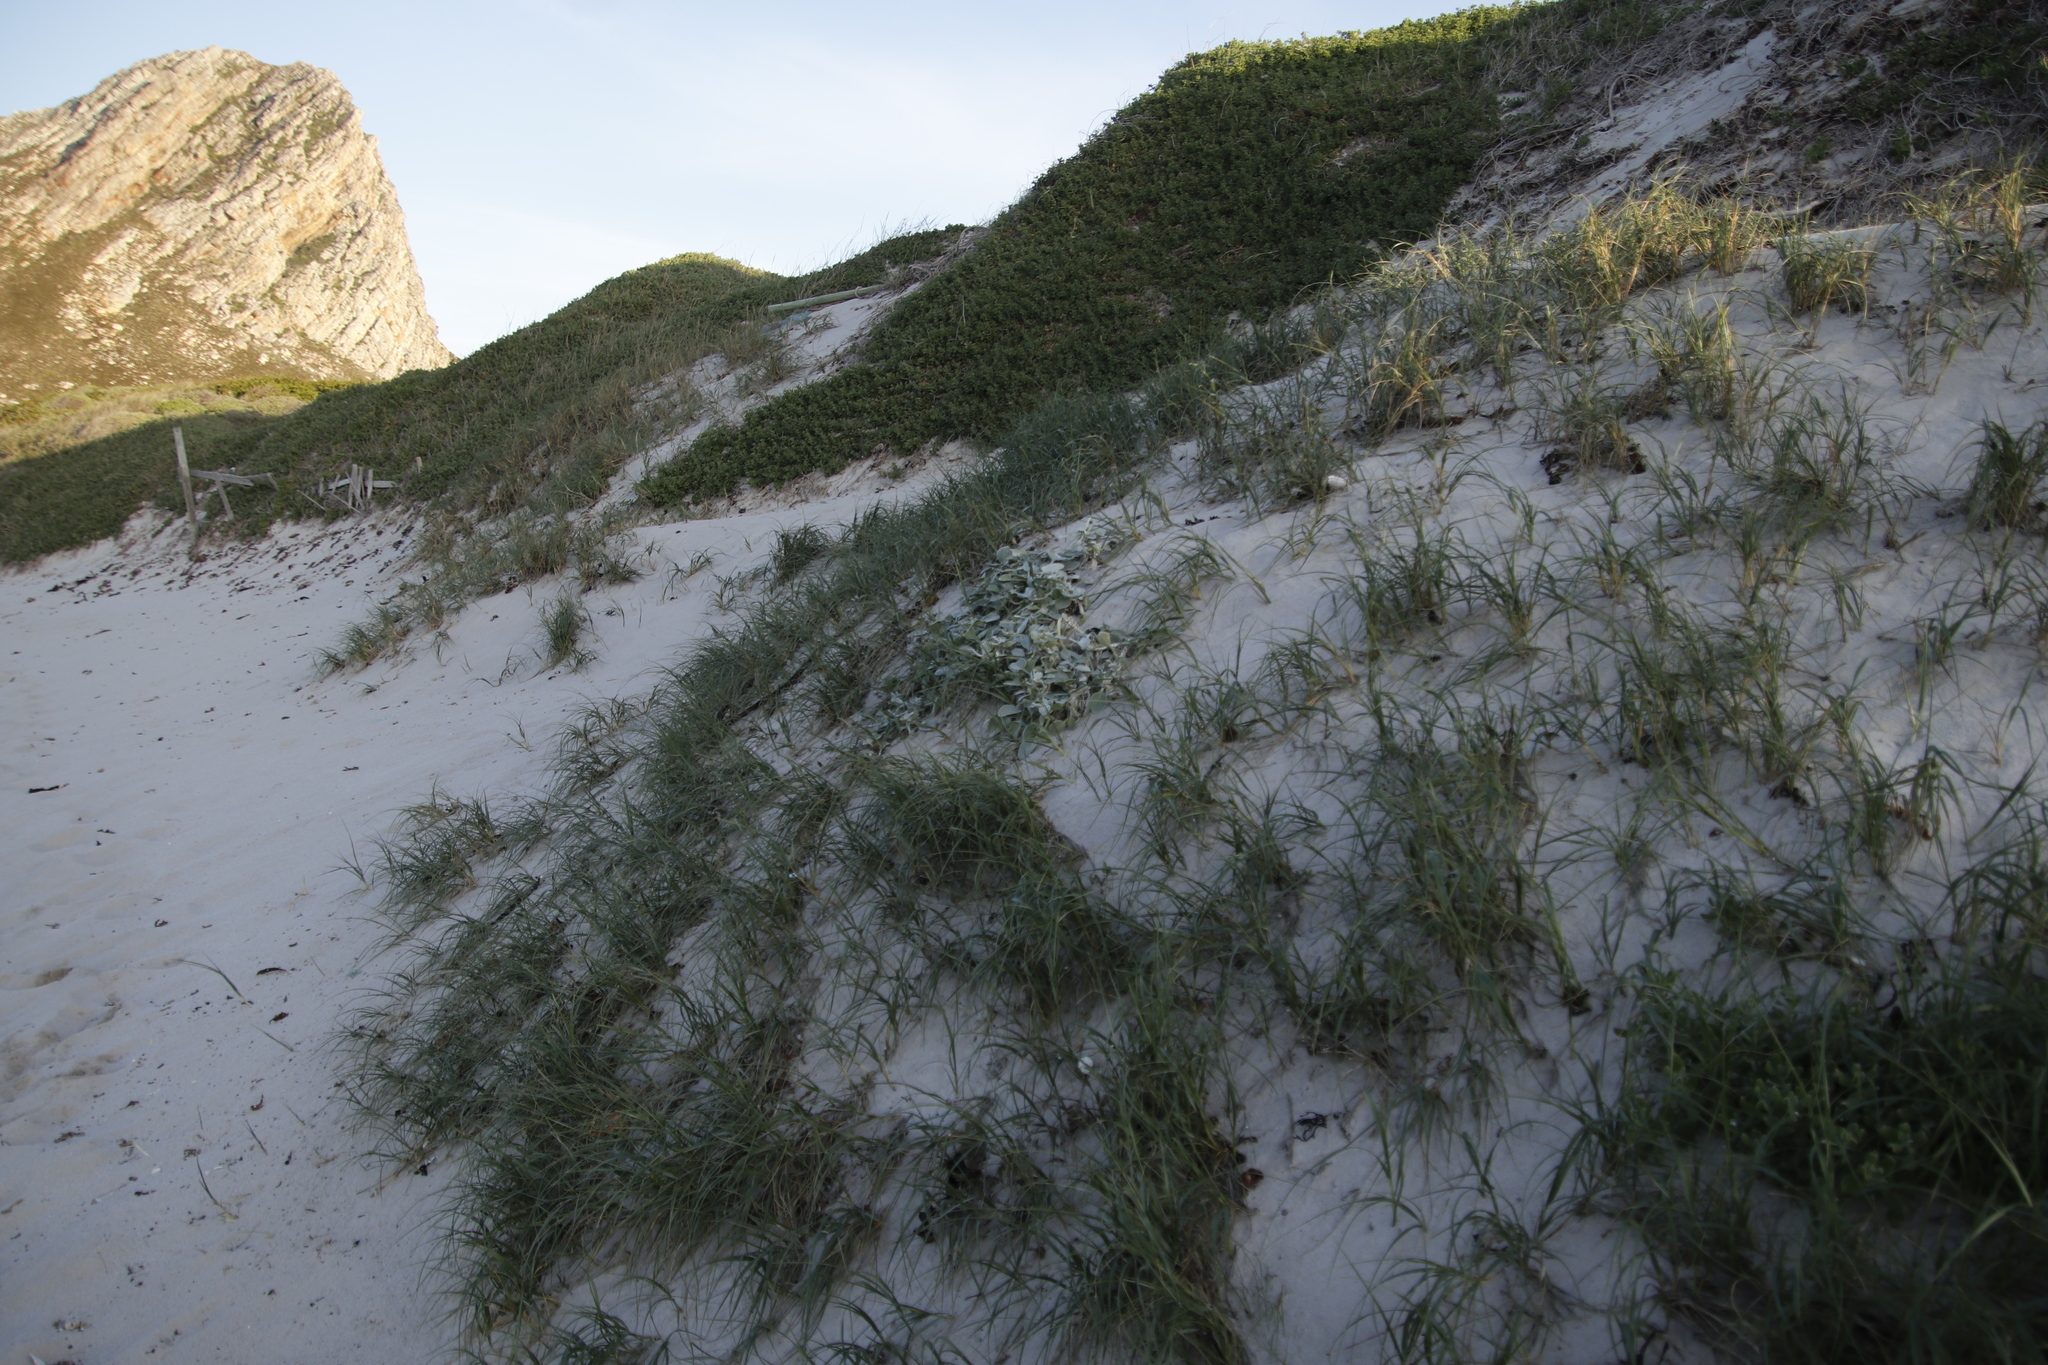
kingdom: Plantae
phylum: Tracheophyta
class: Magnoliopsida
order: Asterales
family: Asteraceae
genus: Arctotheca
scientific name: Arctotheca populifolia
